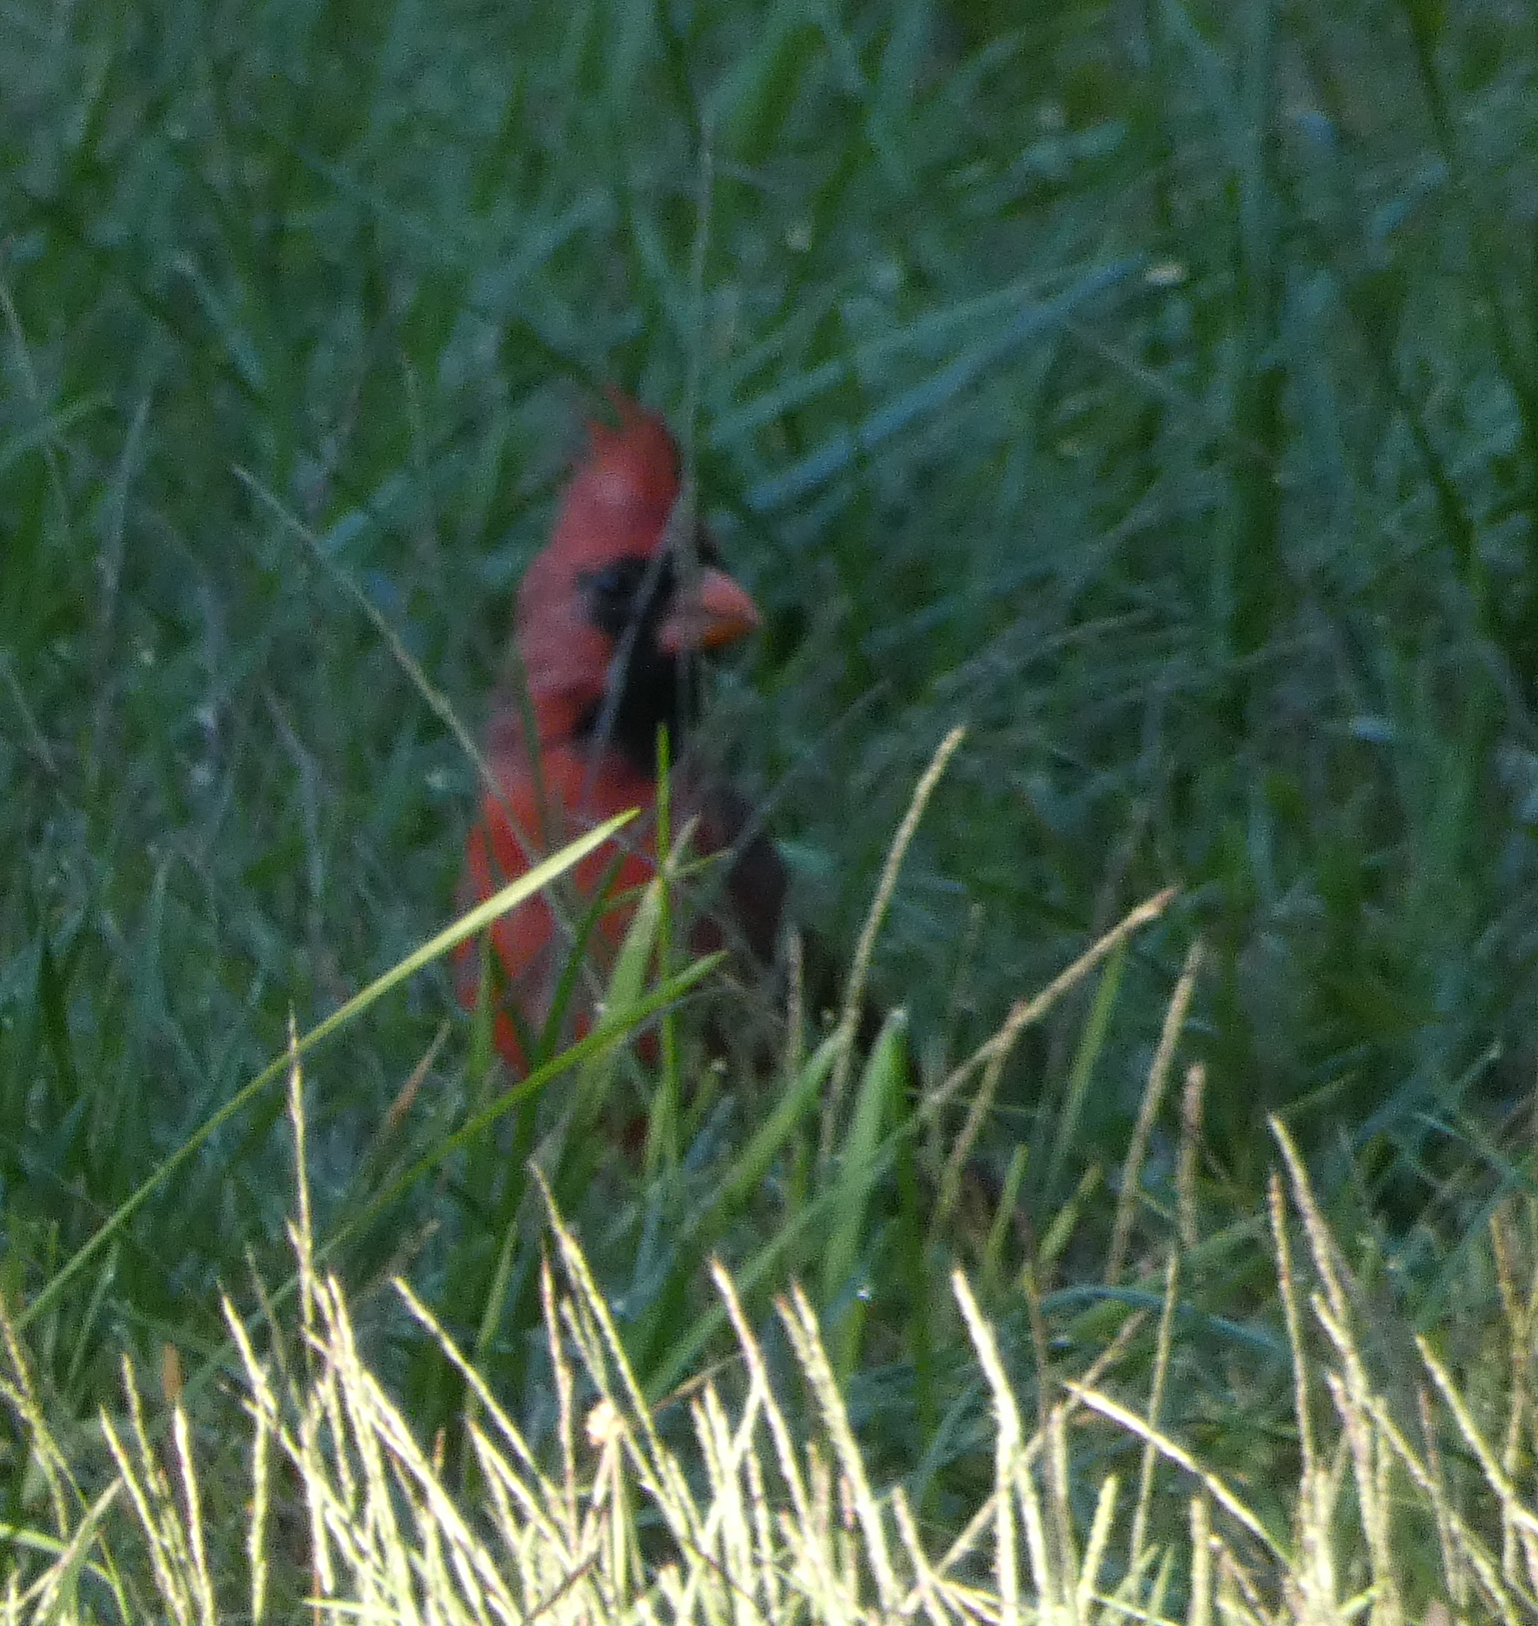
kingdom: Animalia
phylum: Chordata
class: Aves
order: Passeriformes
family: Cardinalidae
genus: Cardinalis
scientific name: Cardinalis cardinalis
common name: Northern cardinal
